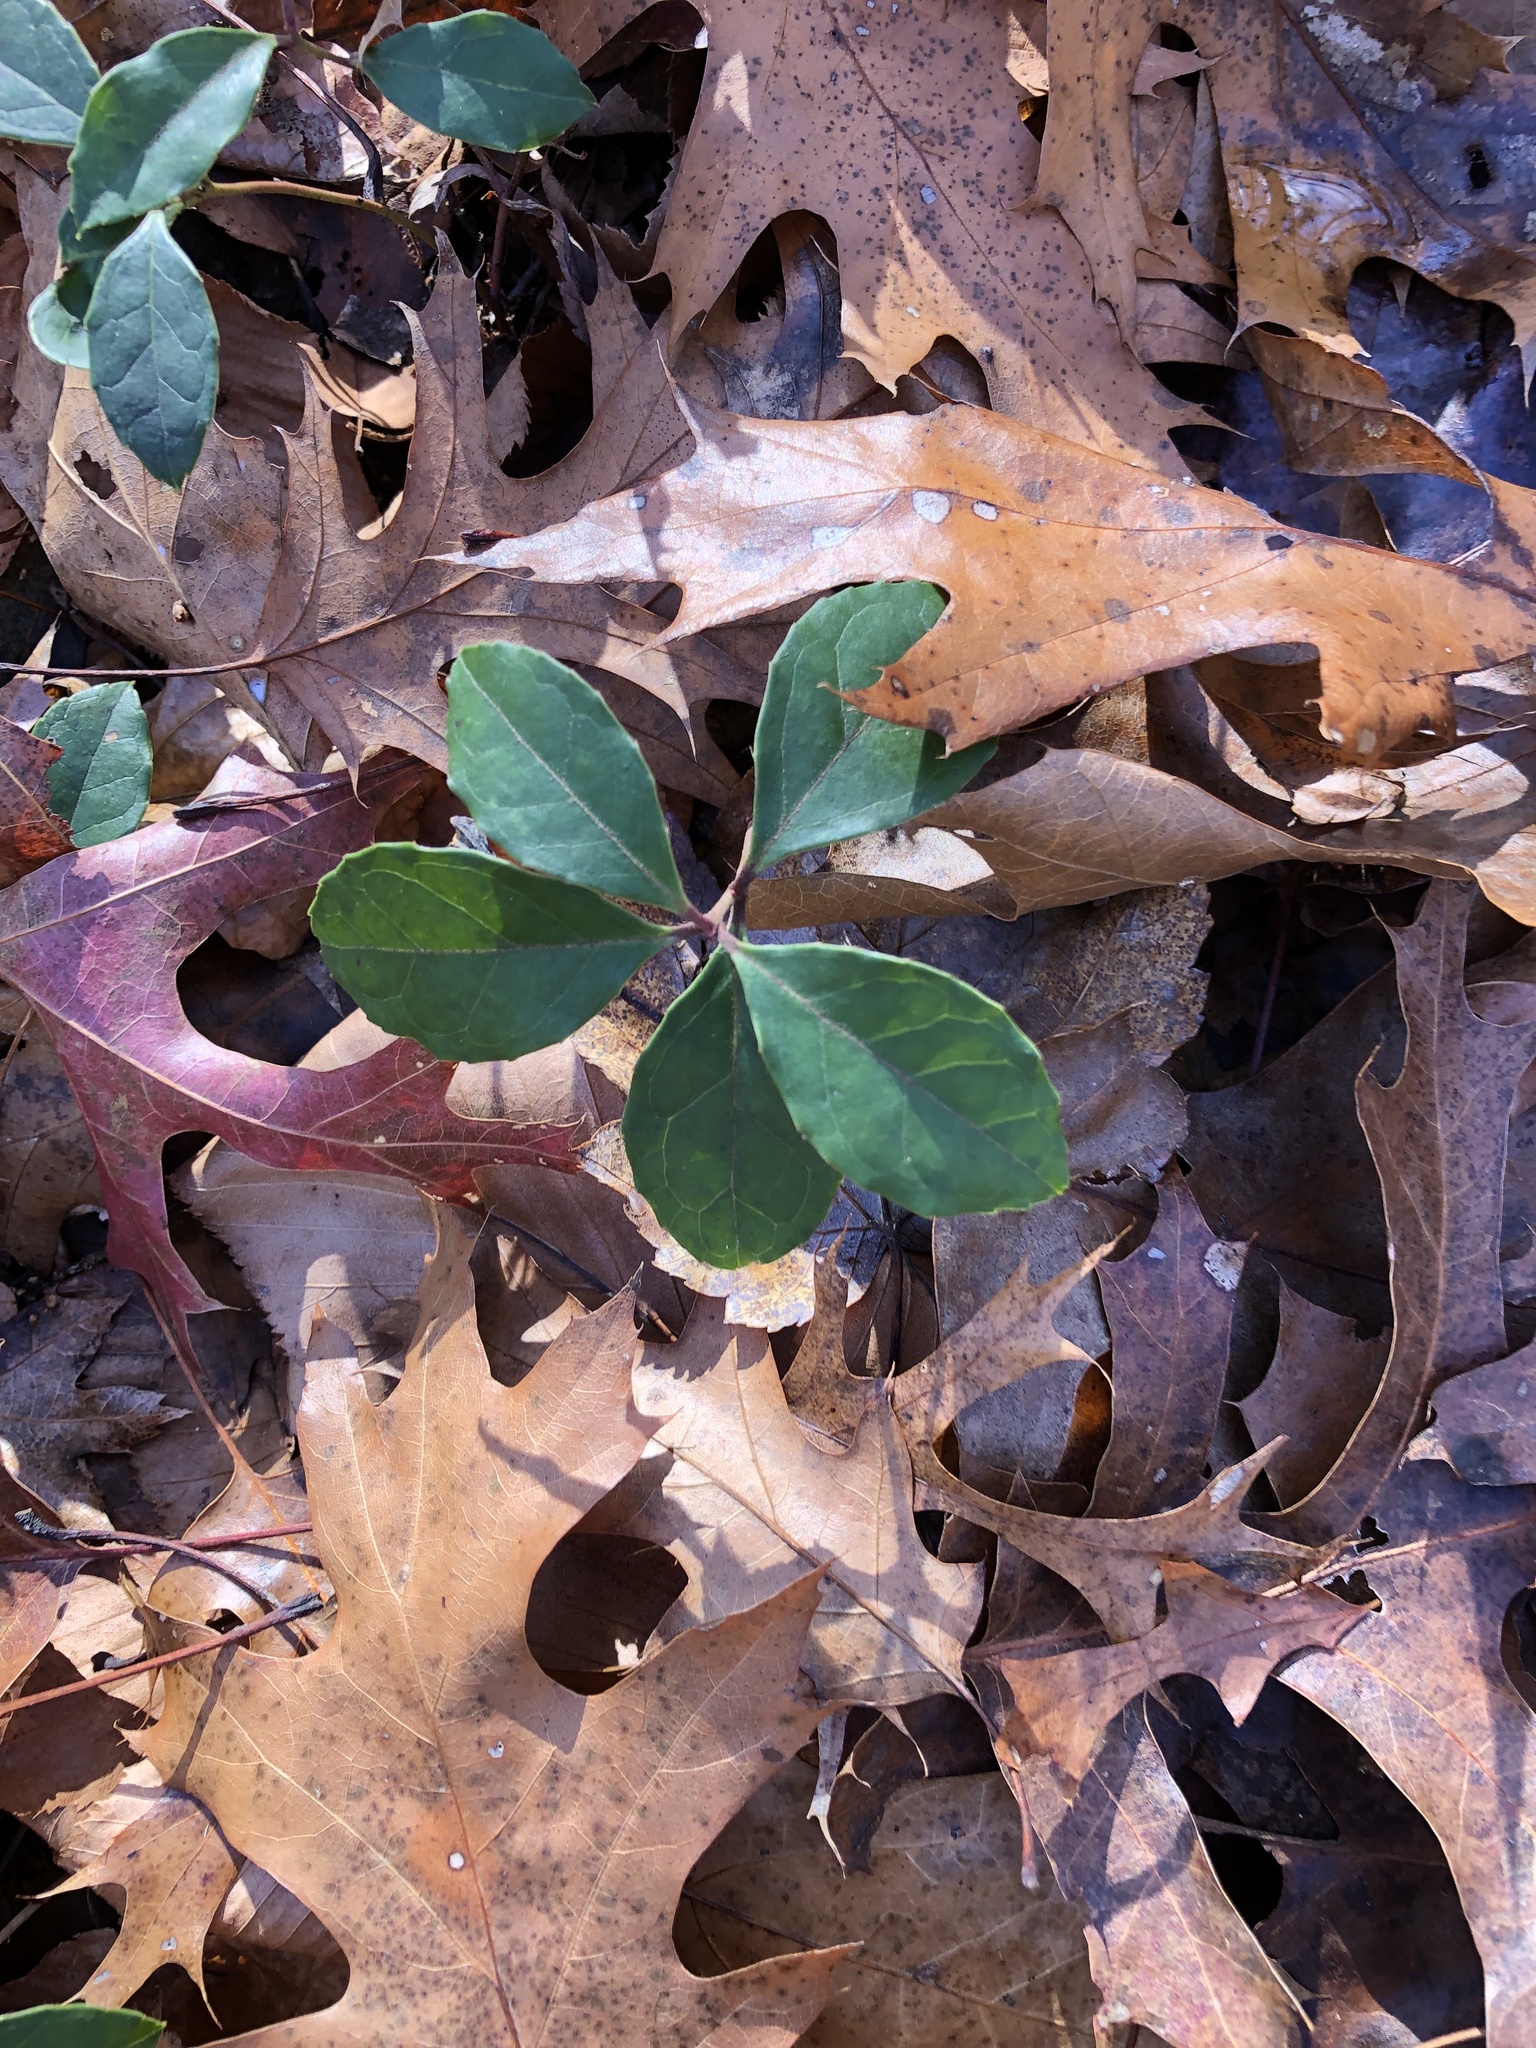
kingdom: Plantae
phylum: Tracheophyta
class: Magnoliopsida
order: Ericales
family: Ericaceae
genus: Gaultheria
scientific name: Gaultheria procumbens
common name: Checkerberry
